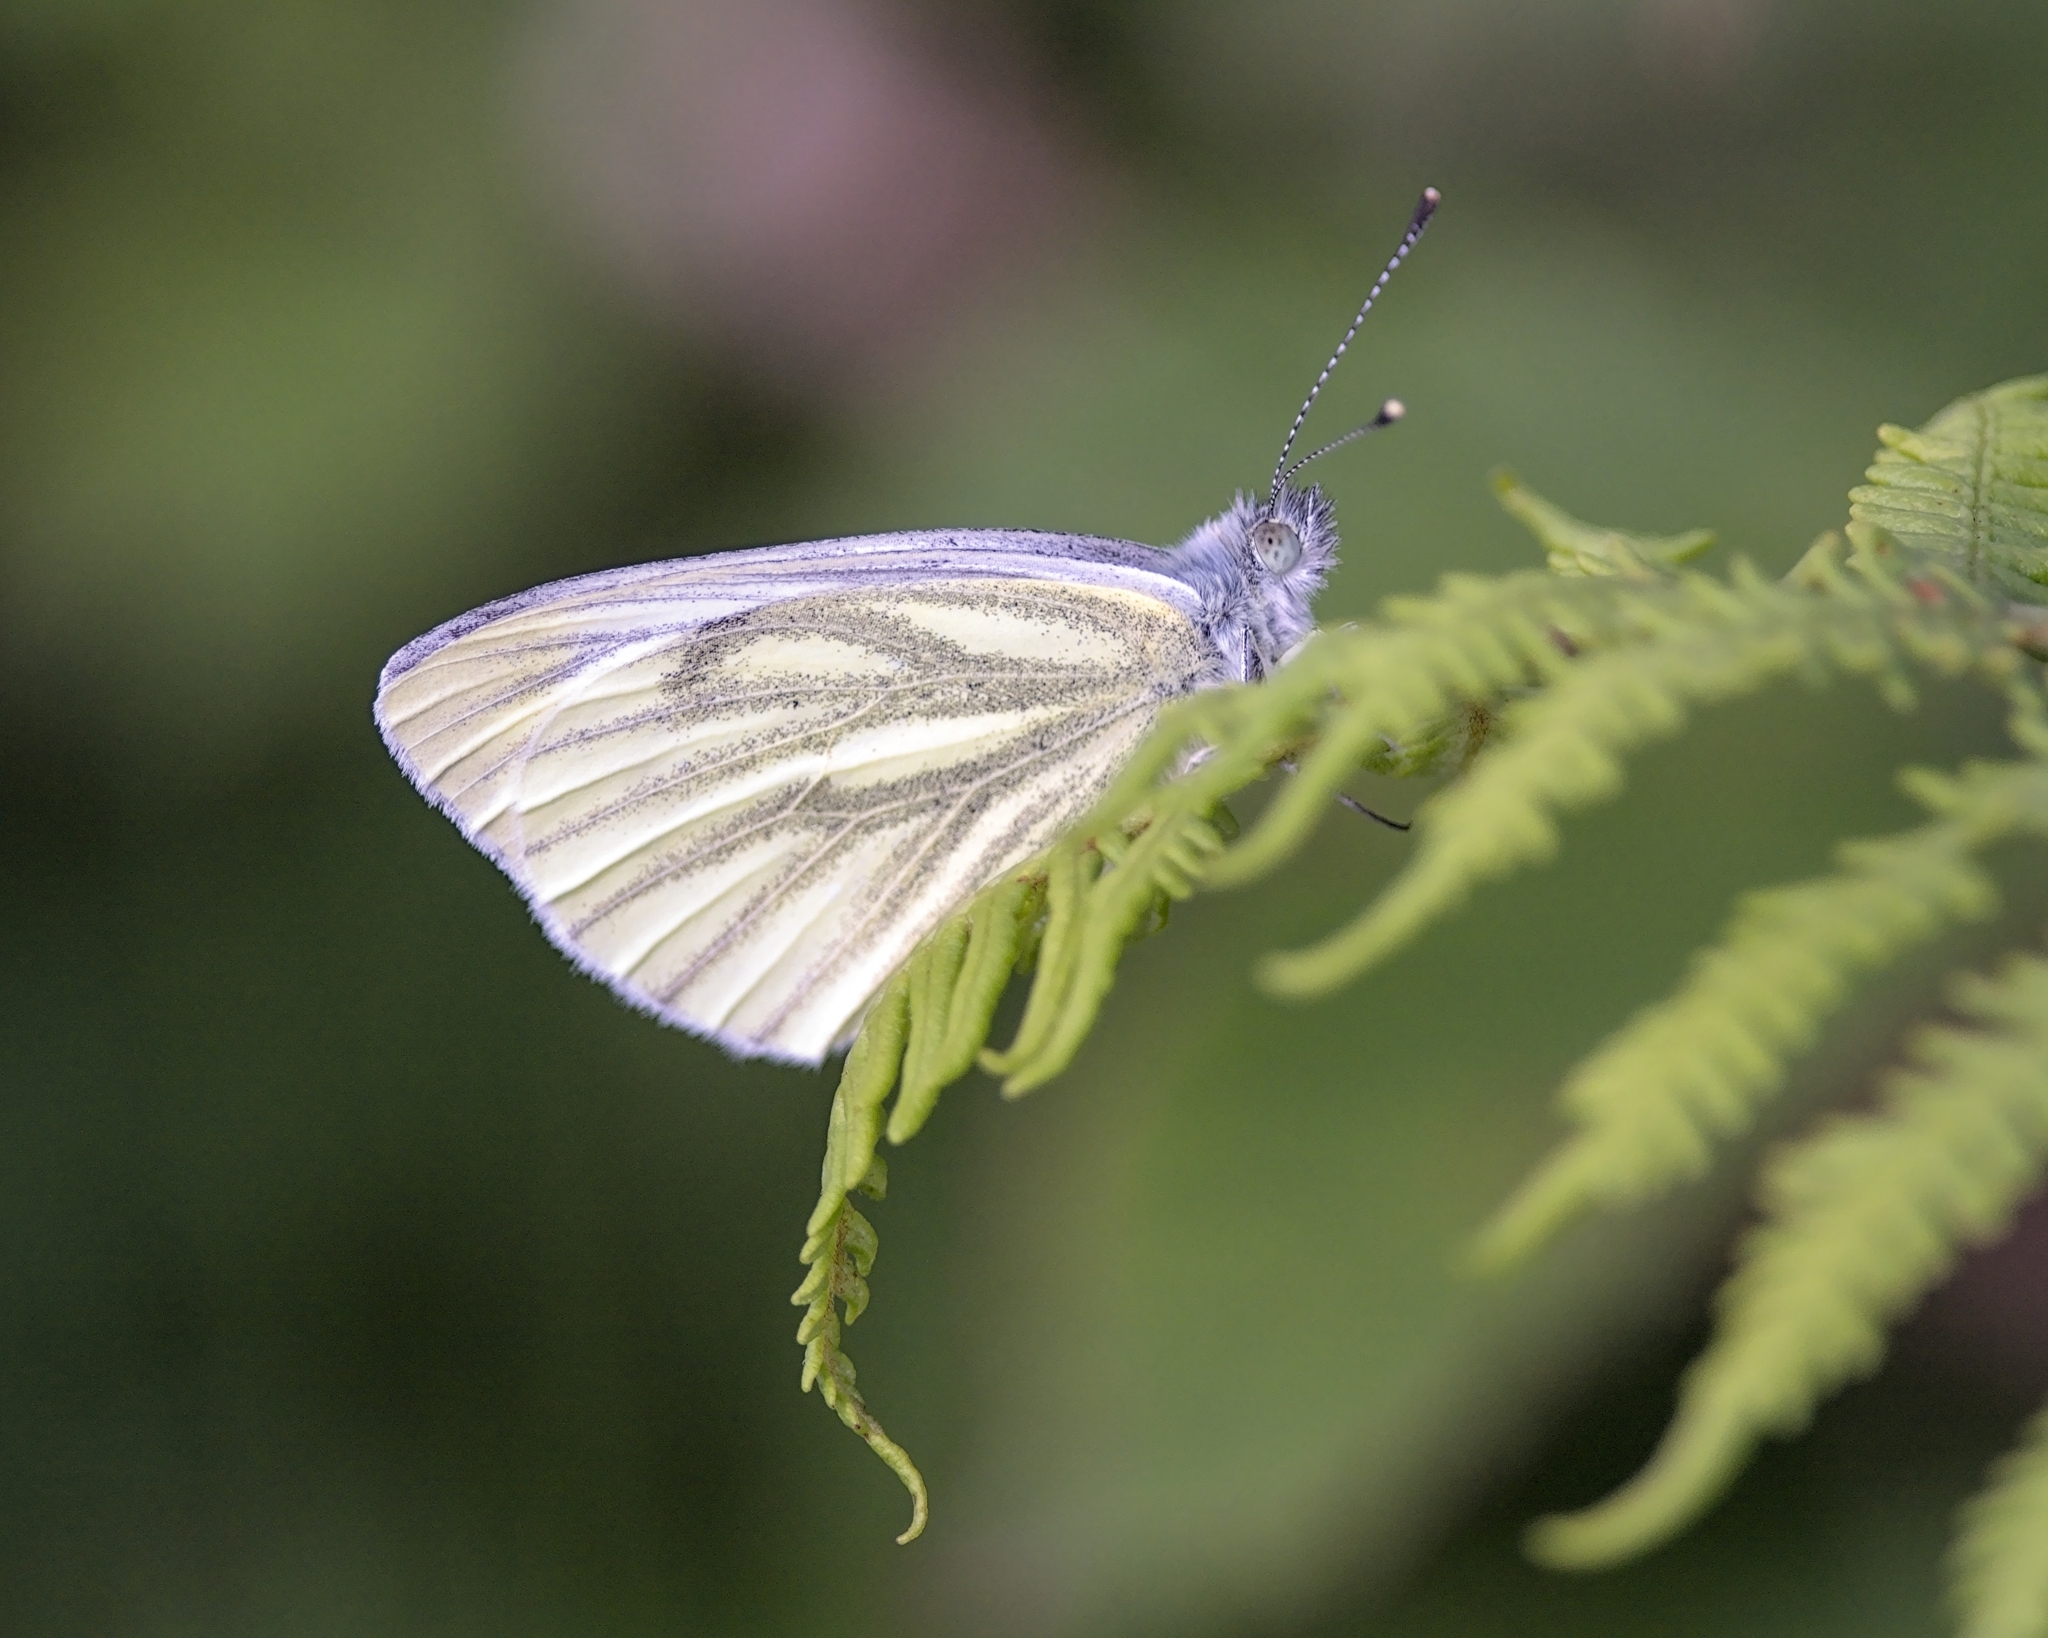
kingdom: Animalia
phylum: Arthropoda
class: Insecta
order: Lepidoptera
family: Pieridae
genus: Pieris
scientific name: Pieris napi
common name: Green-veined white
